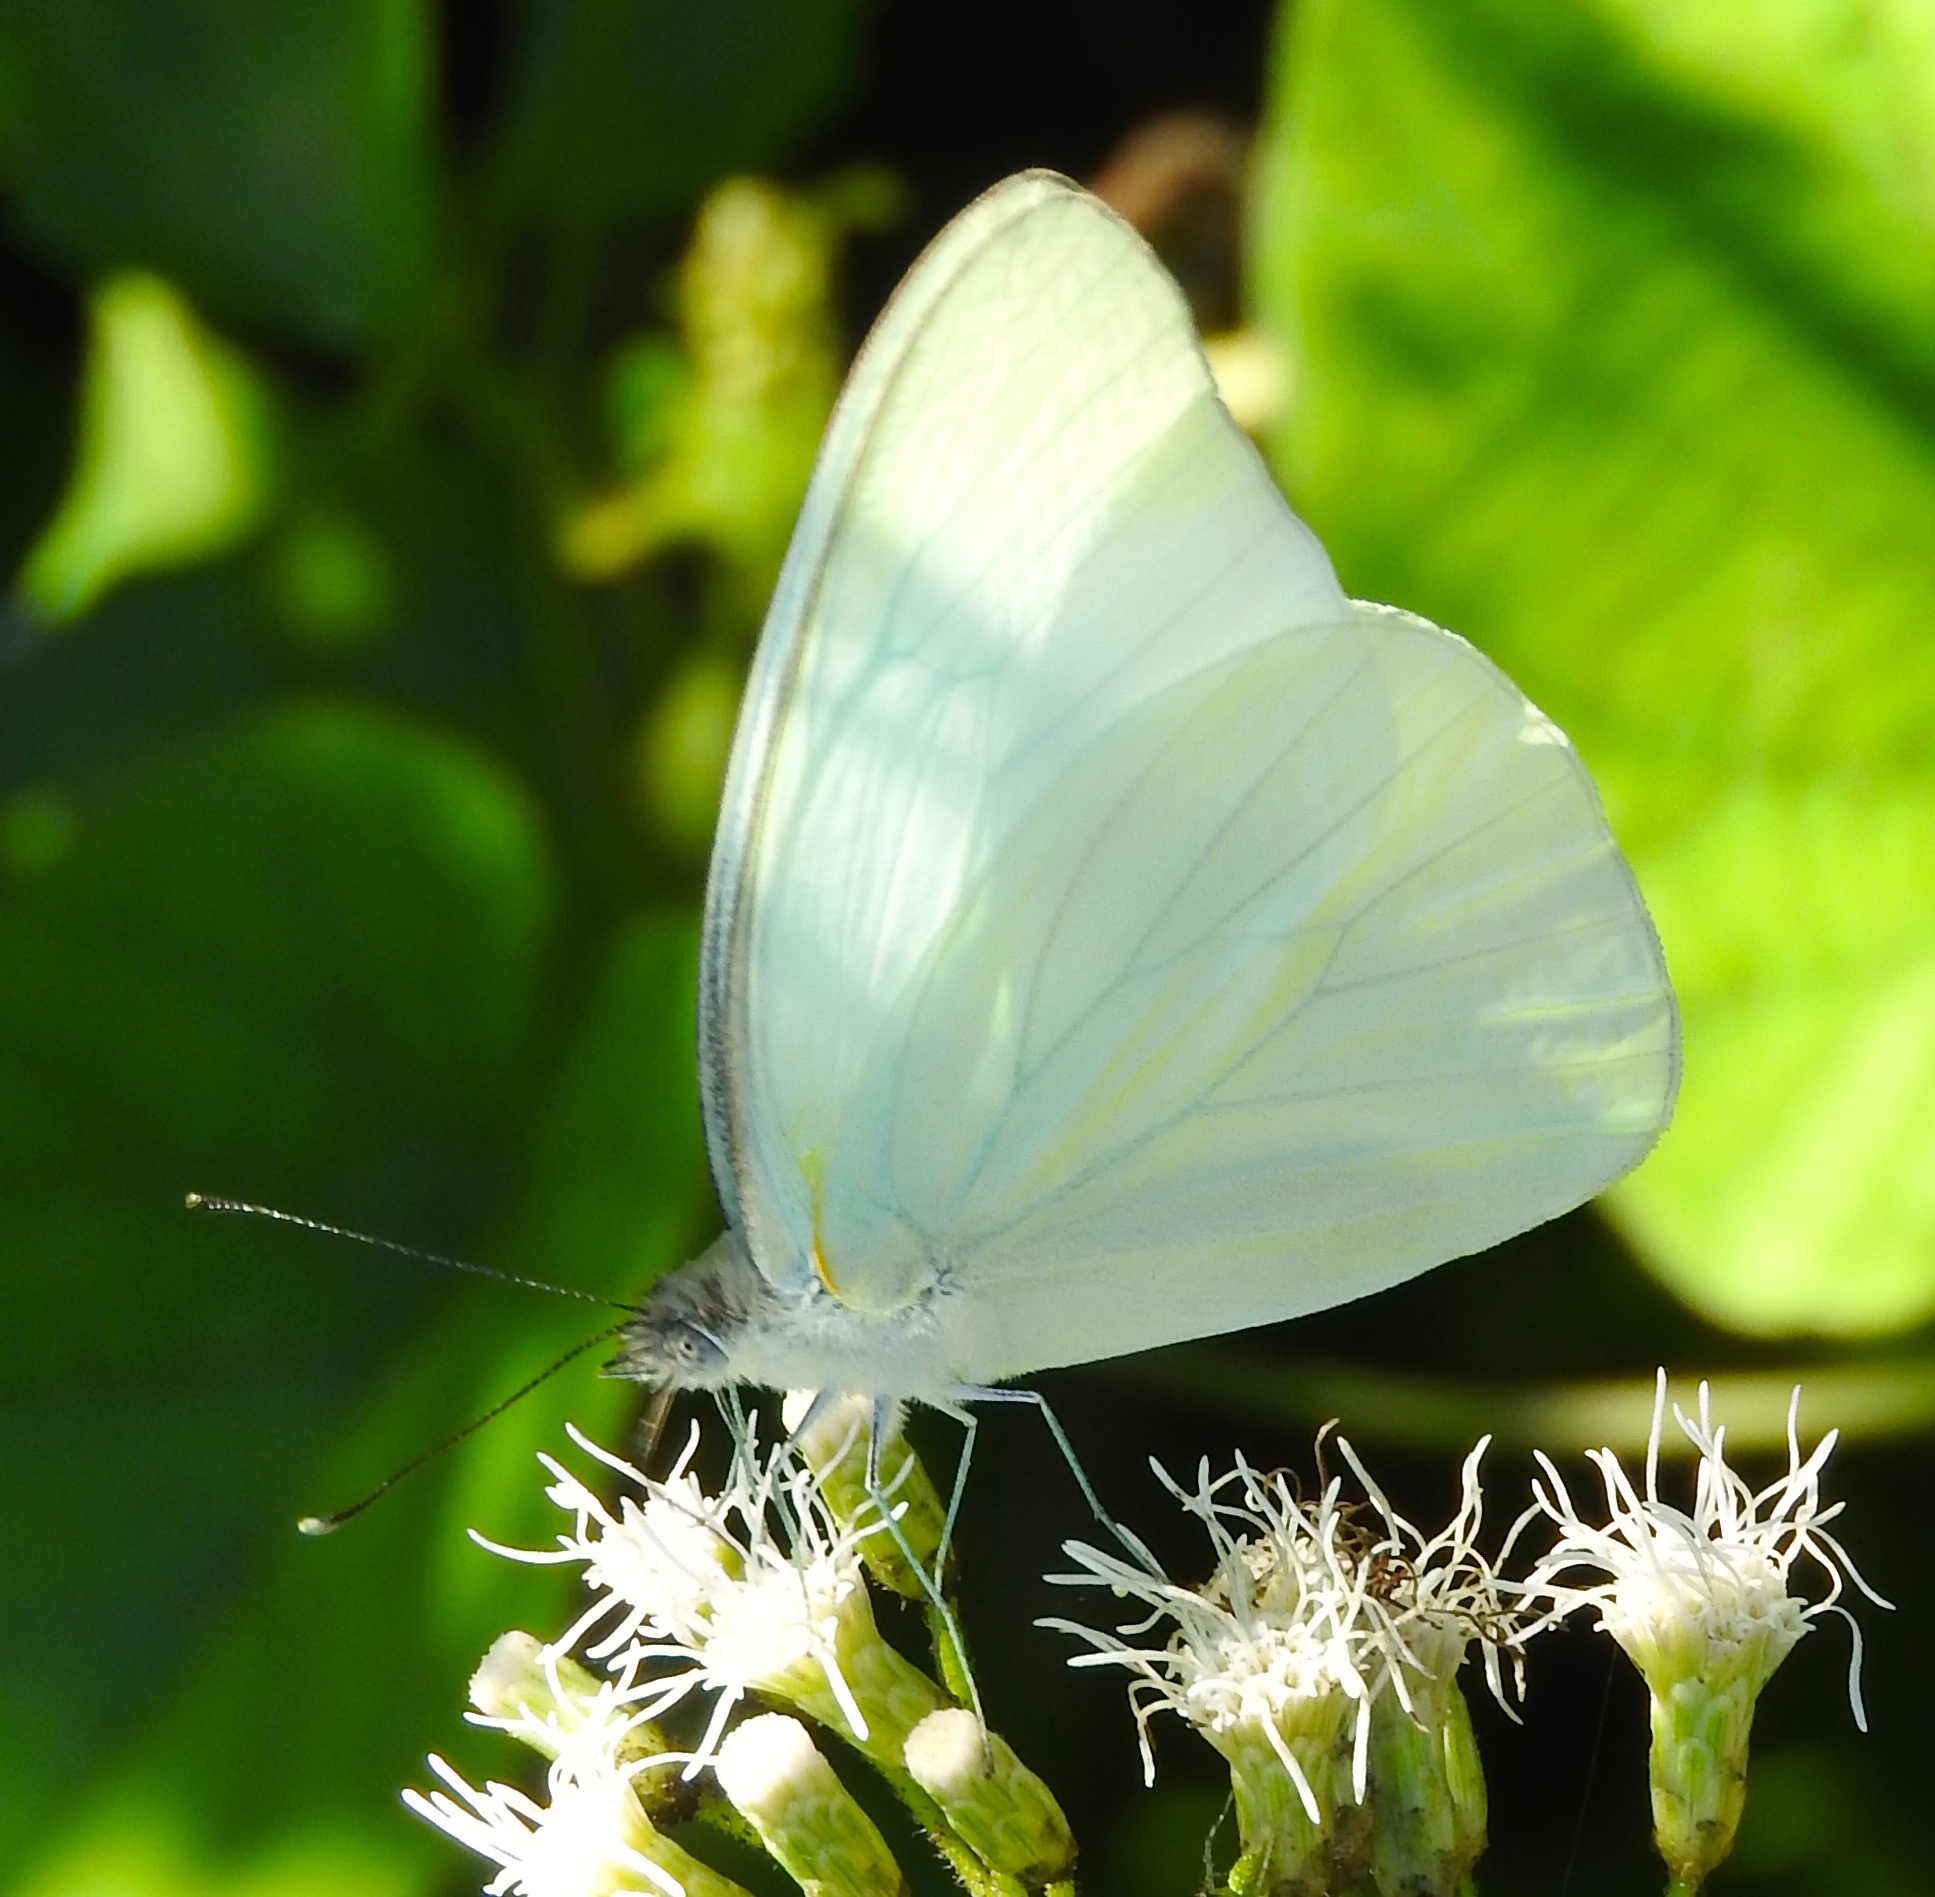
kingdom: Animalia
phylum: Arthropoda
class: Insecta
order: Lepidoptera
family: Pieridae
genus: Glutophrissa
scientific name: Glutophrissa drusilla
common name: Florida white
